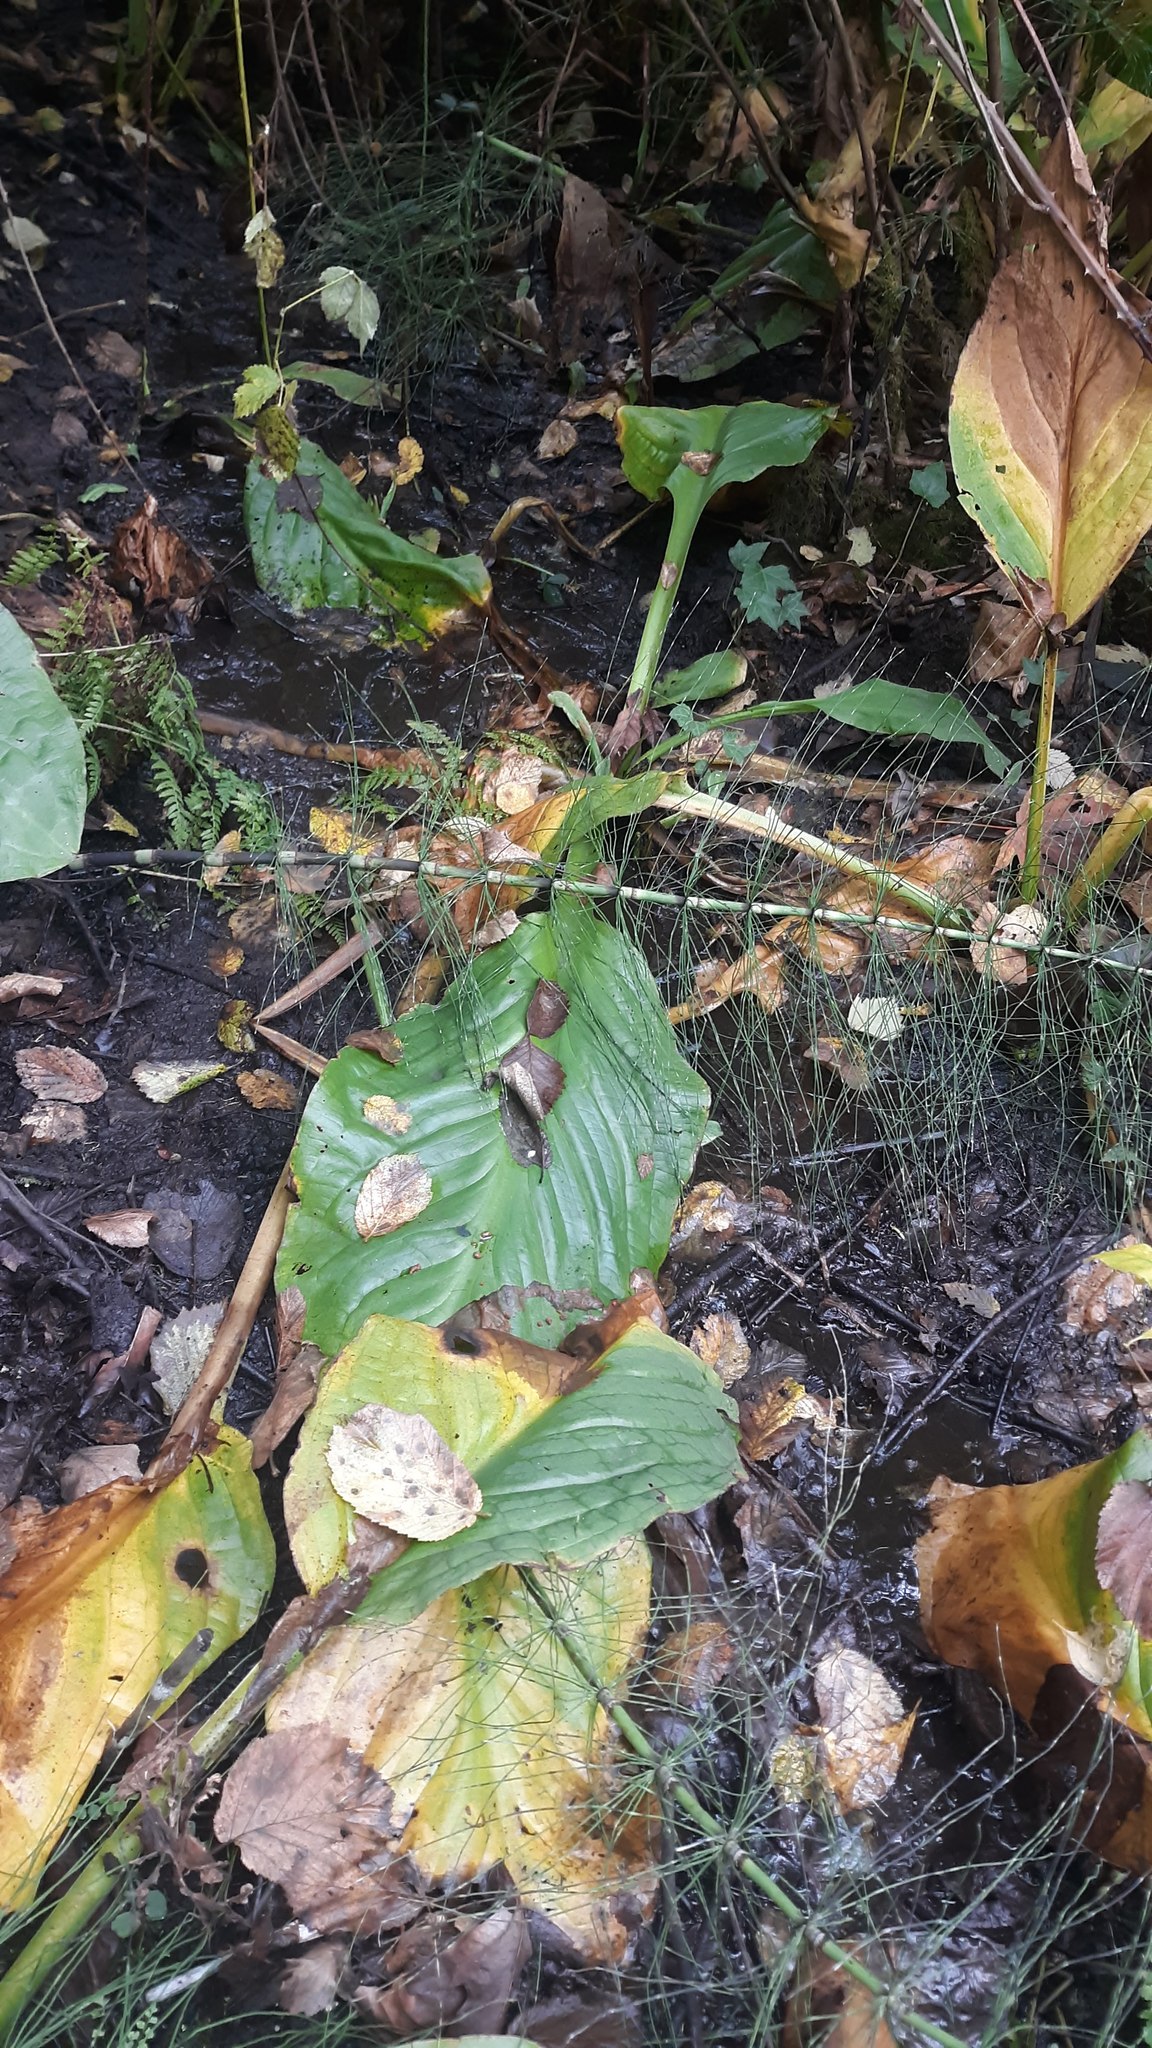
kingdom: Plantae
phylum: Tracheophyta
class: Liliopsida
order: Alismatales
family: Araceae
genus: Lysichiton
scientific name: Lysichiton americanus
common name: American skunk cabbage
